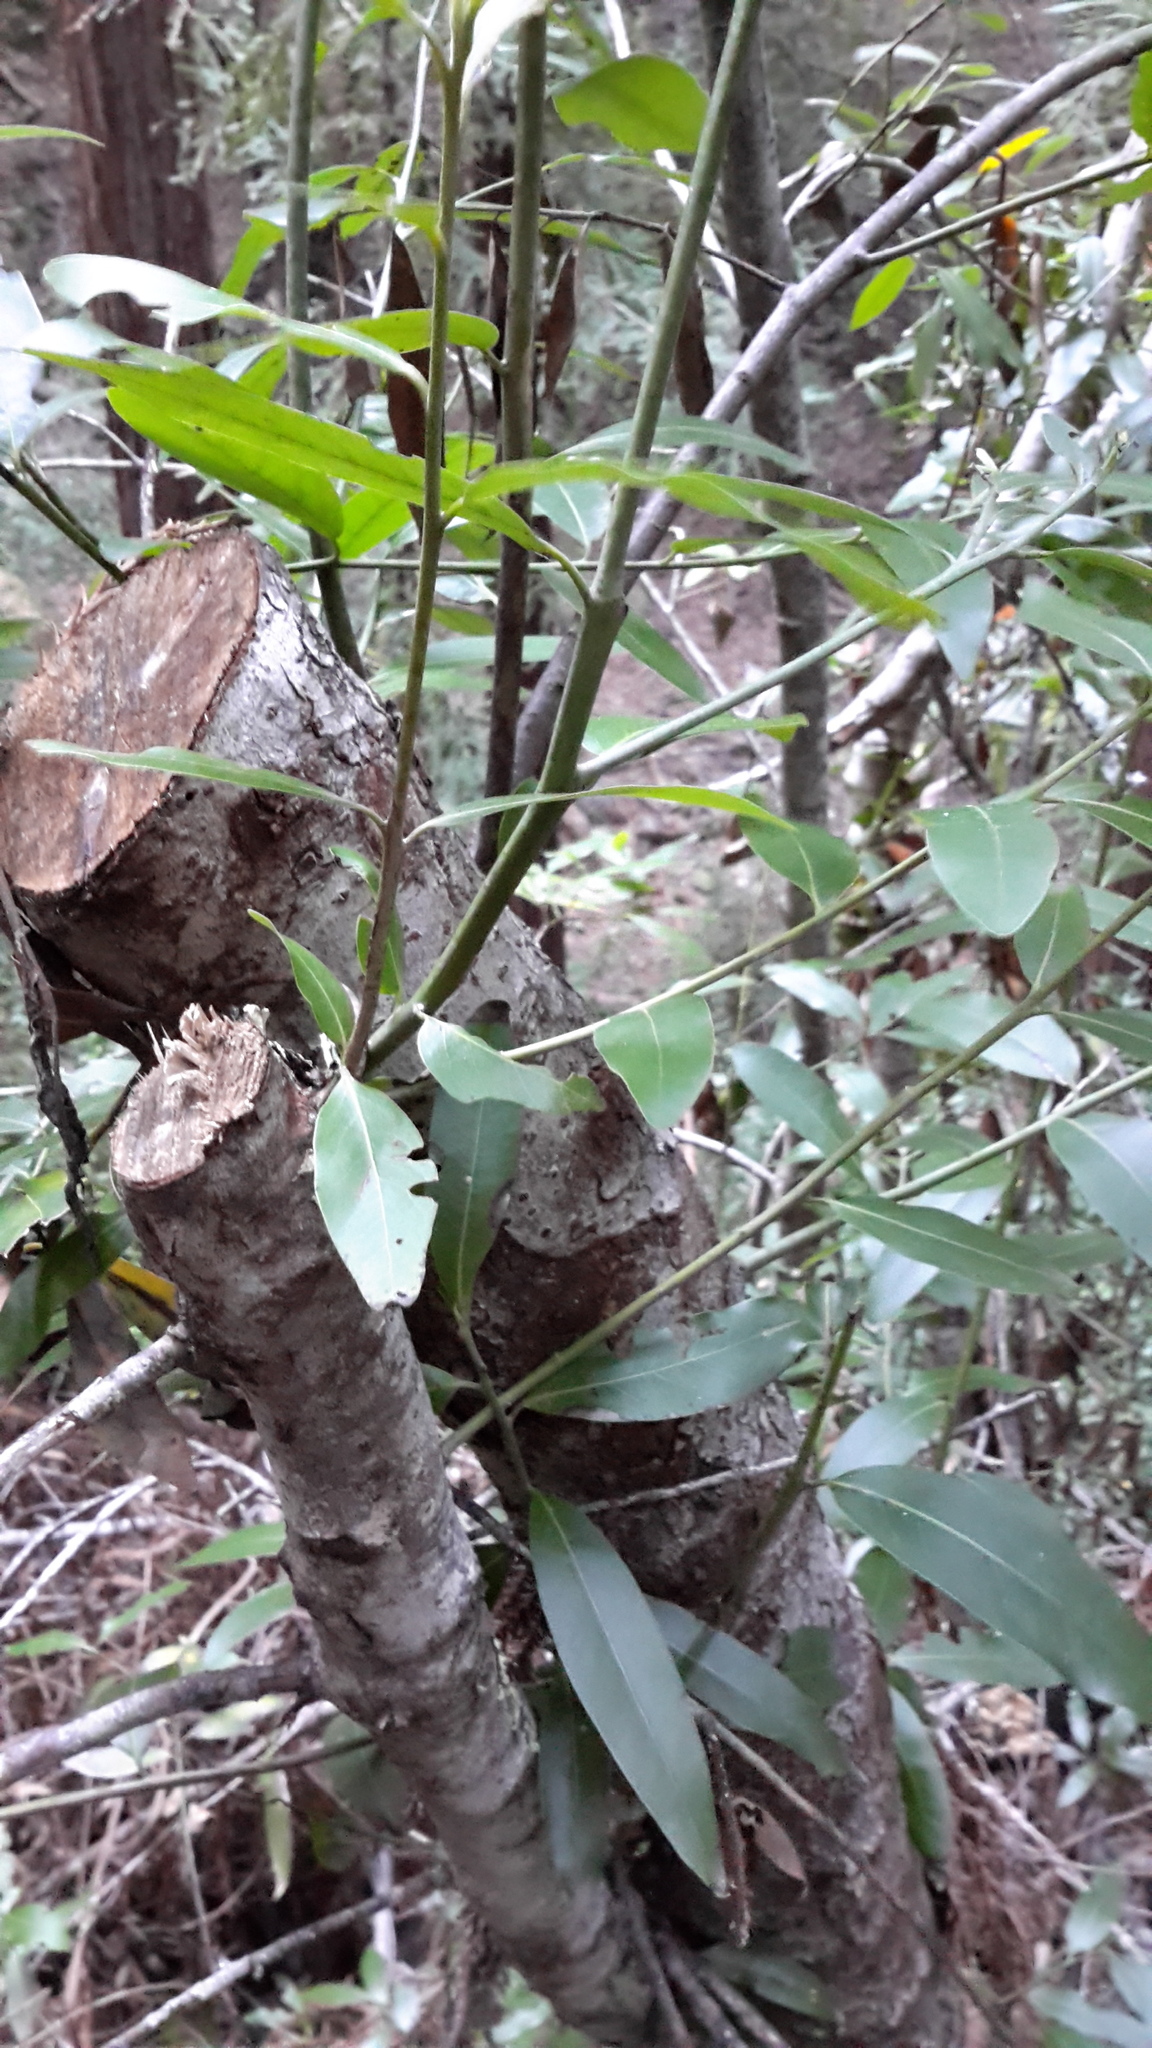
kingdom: Plantae
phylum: Tracheophyta
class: Magnoliopsida
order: Laurales
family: Lauraceae
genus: Umbellularia
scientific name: Umbellularia californica
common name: California bay
